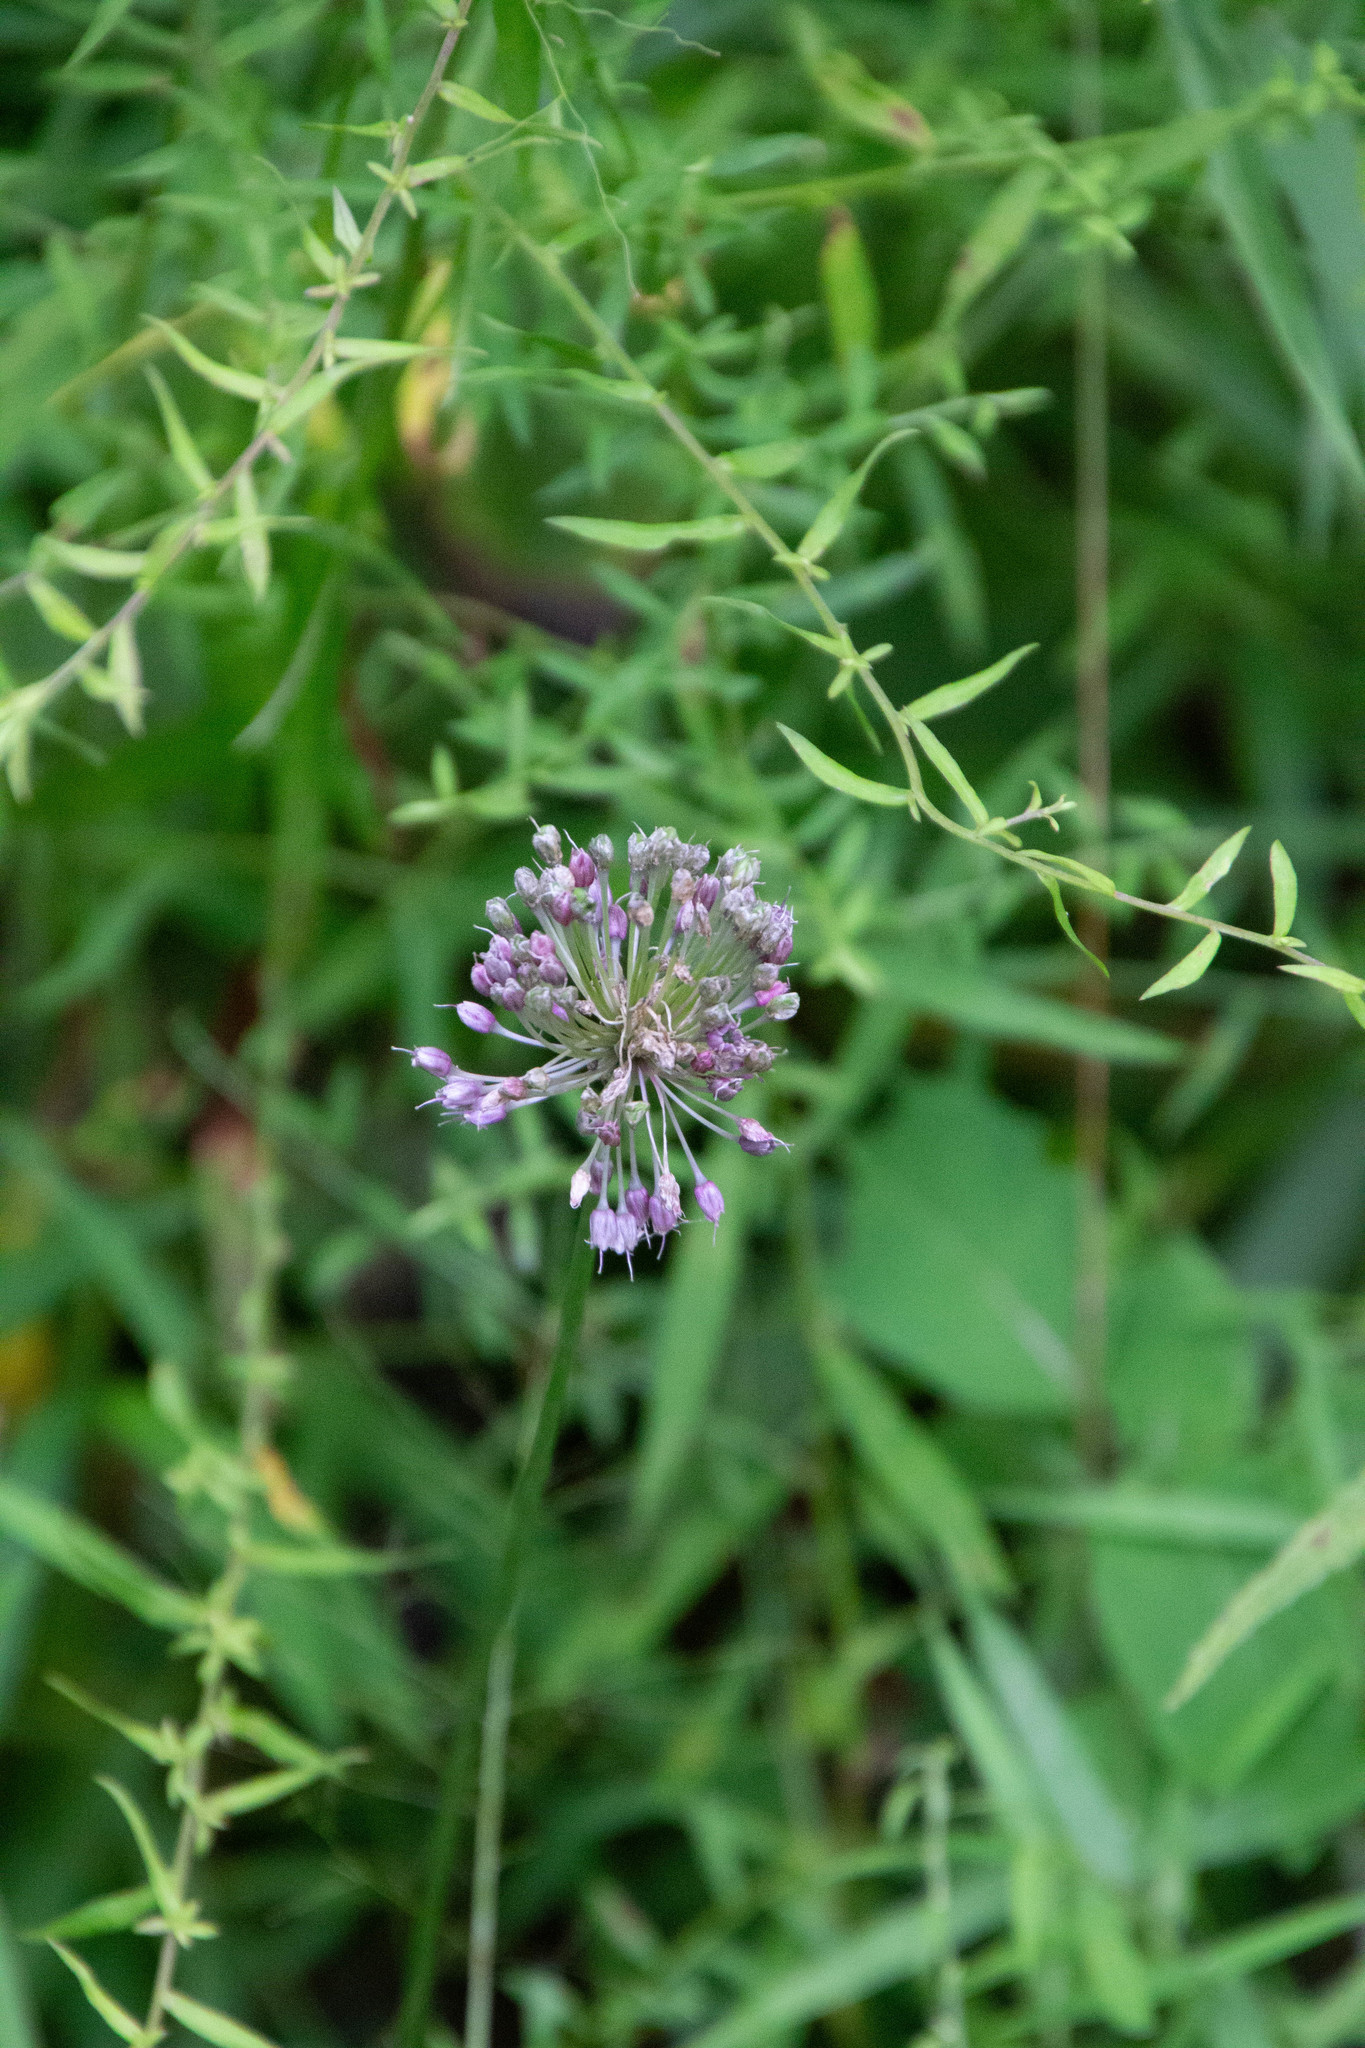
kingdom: Plantae
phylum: Tracheophyta
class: Liliopsida
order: Asparagales
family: Amaryllidaceae
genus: Allium
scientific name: Allium vineale
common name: Crow garlic
